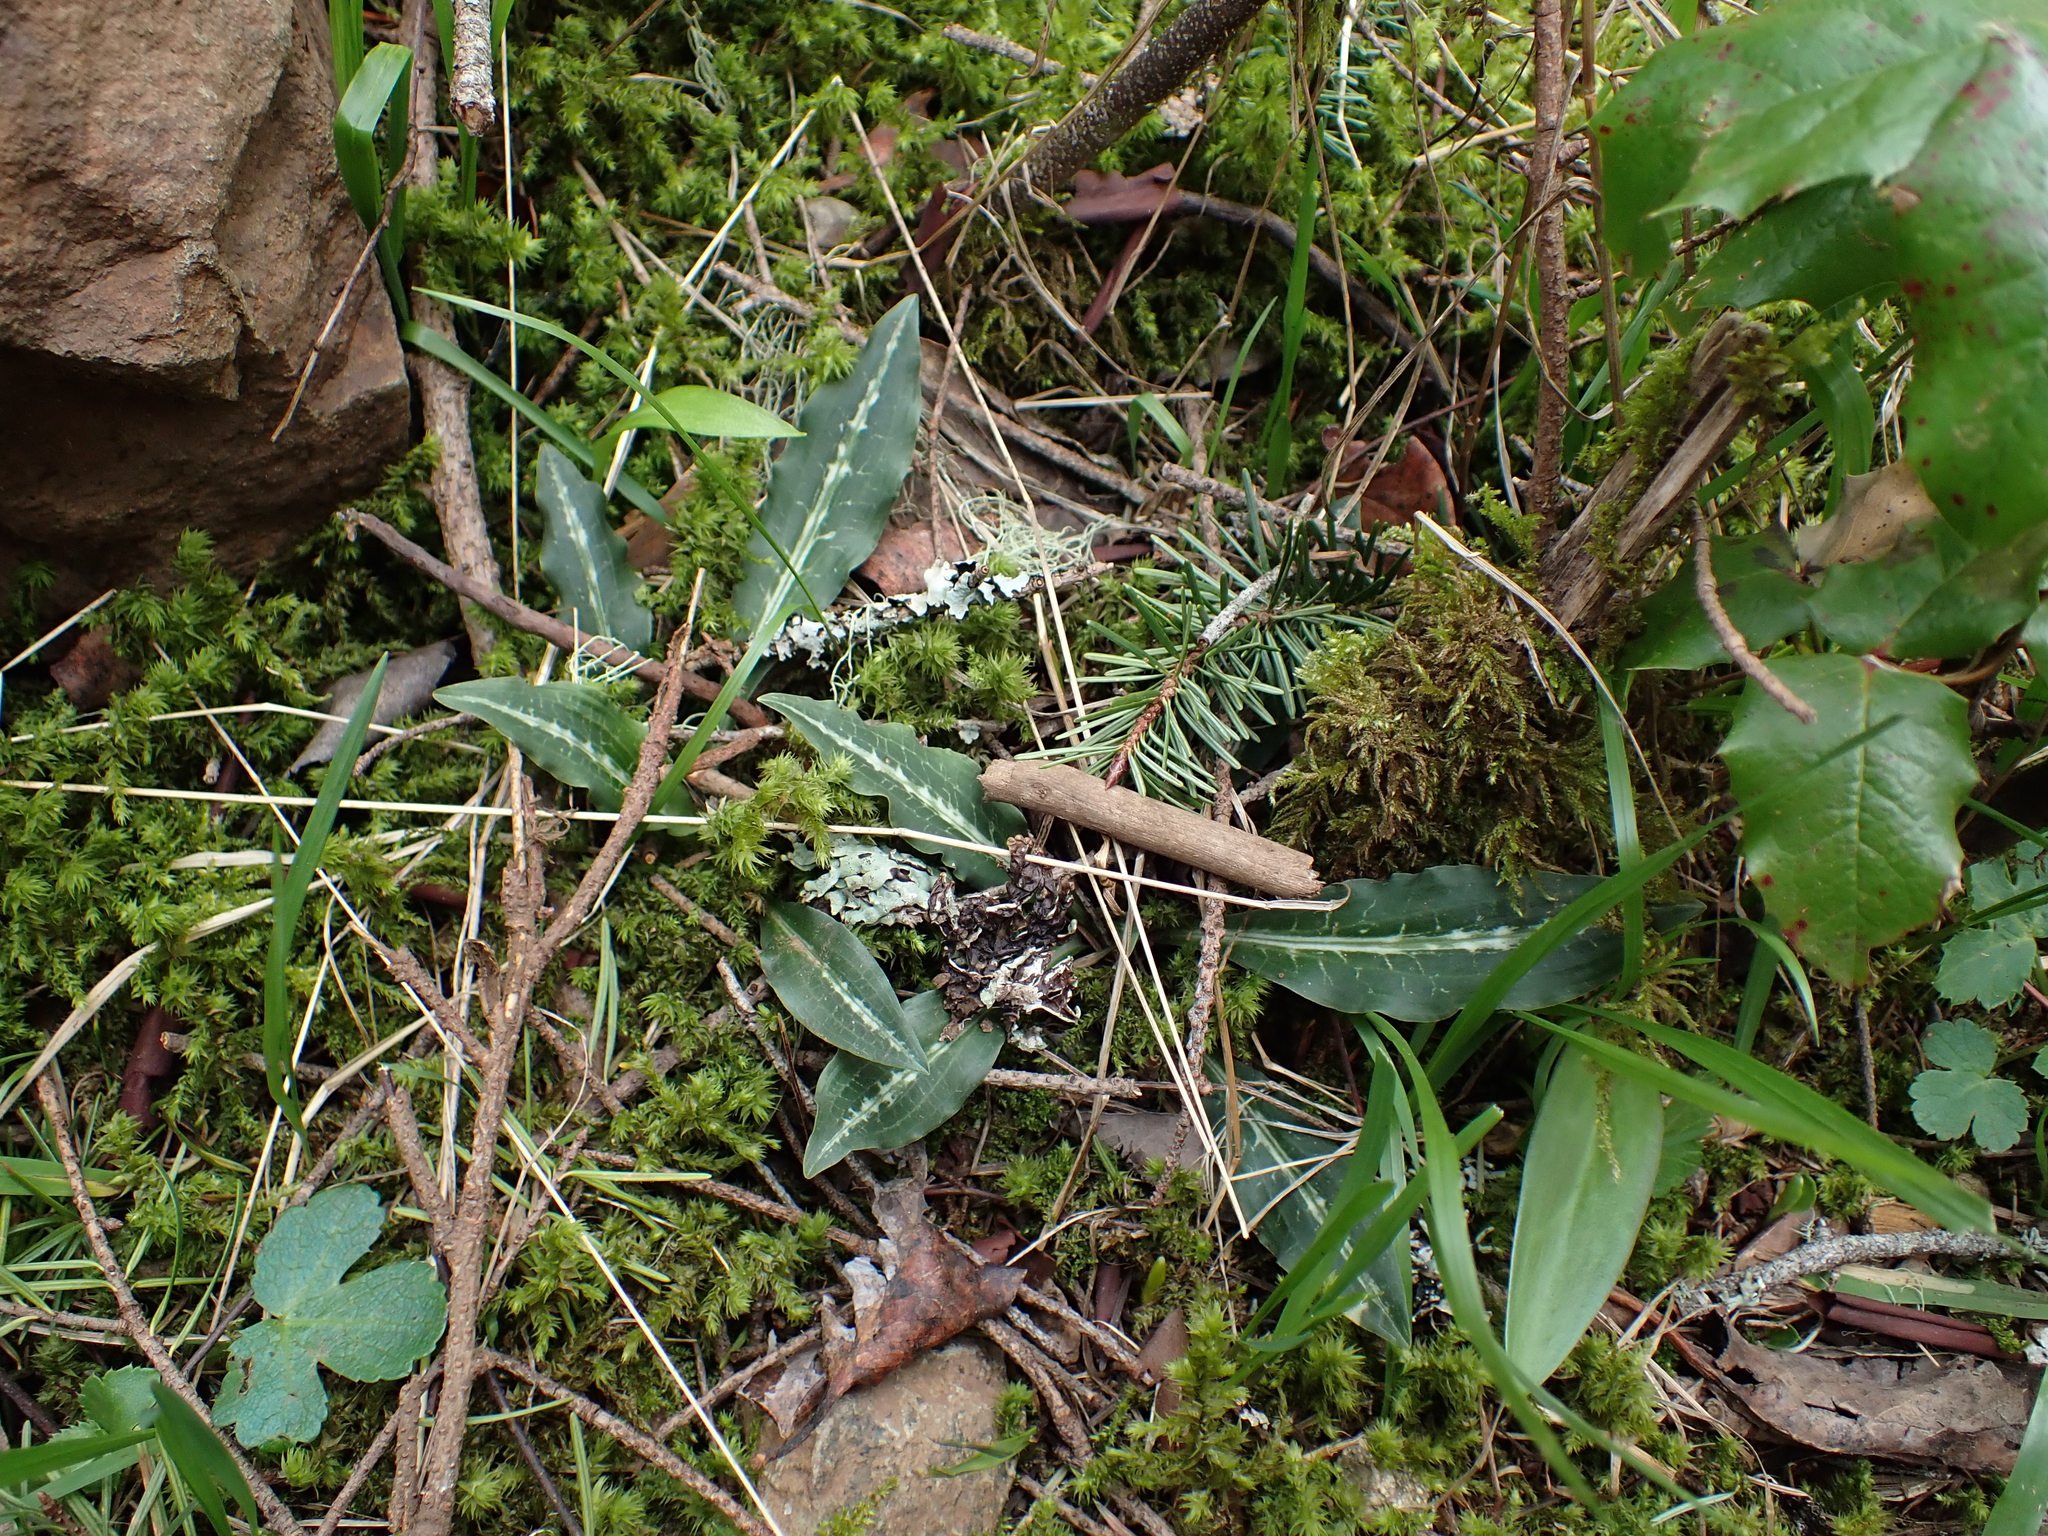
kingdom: Plantae
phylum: Tracheophyta
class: Liliopsida
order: Asparagales
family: Orchidaceae
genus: Goodyera
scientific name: Goodyera oblongifolia
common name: Giant rattlesnake-plantain
